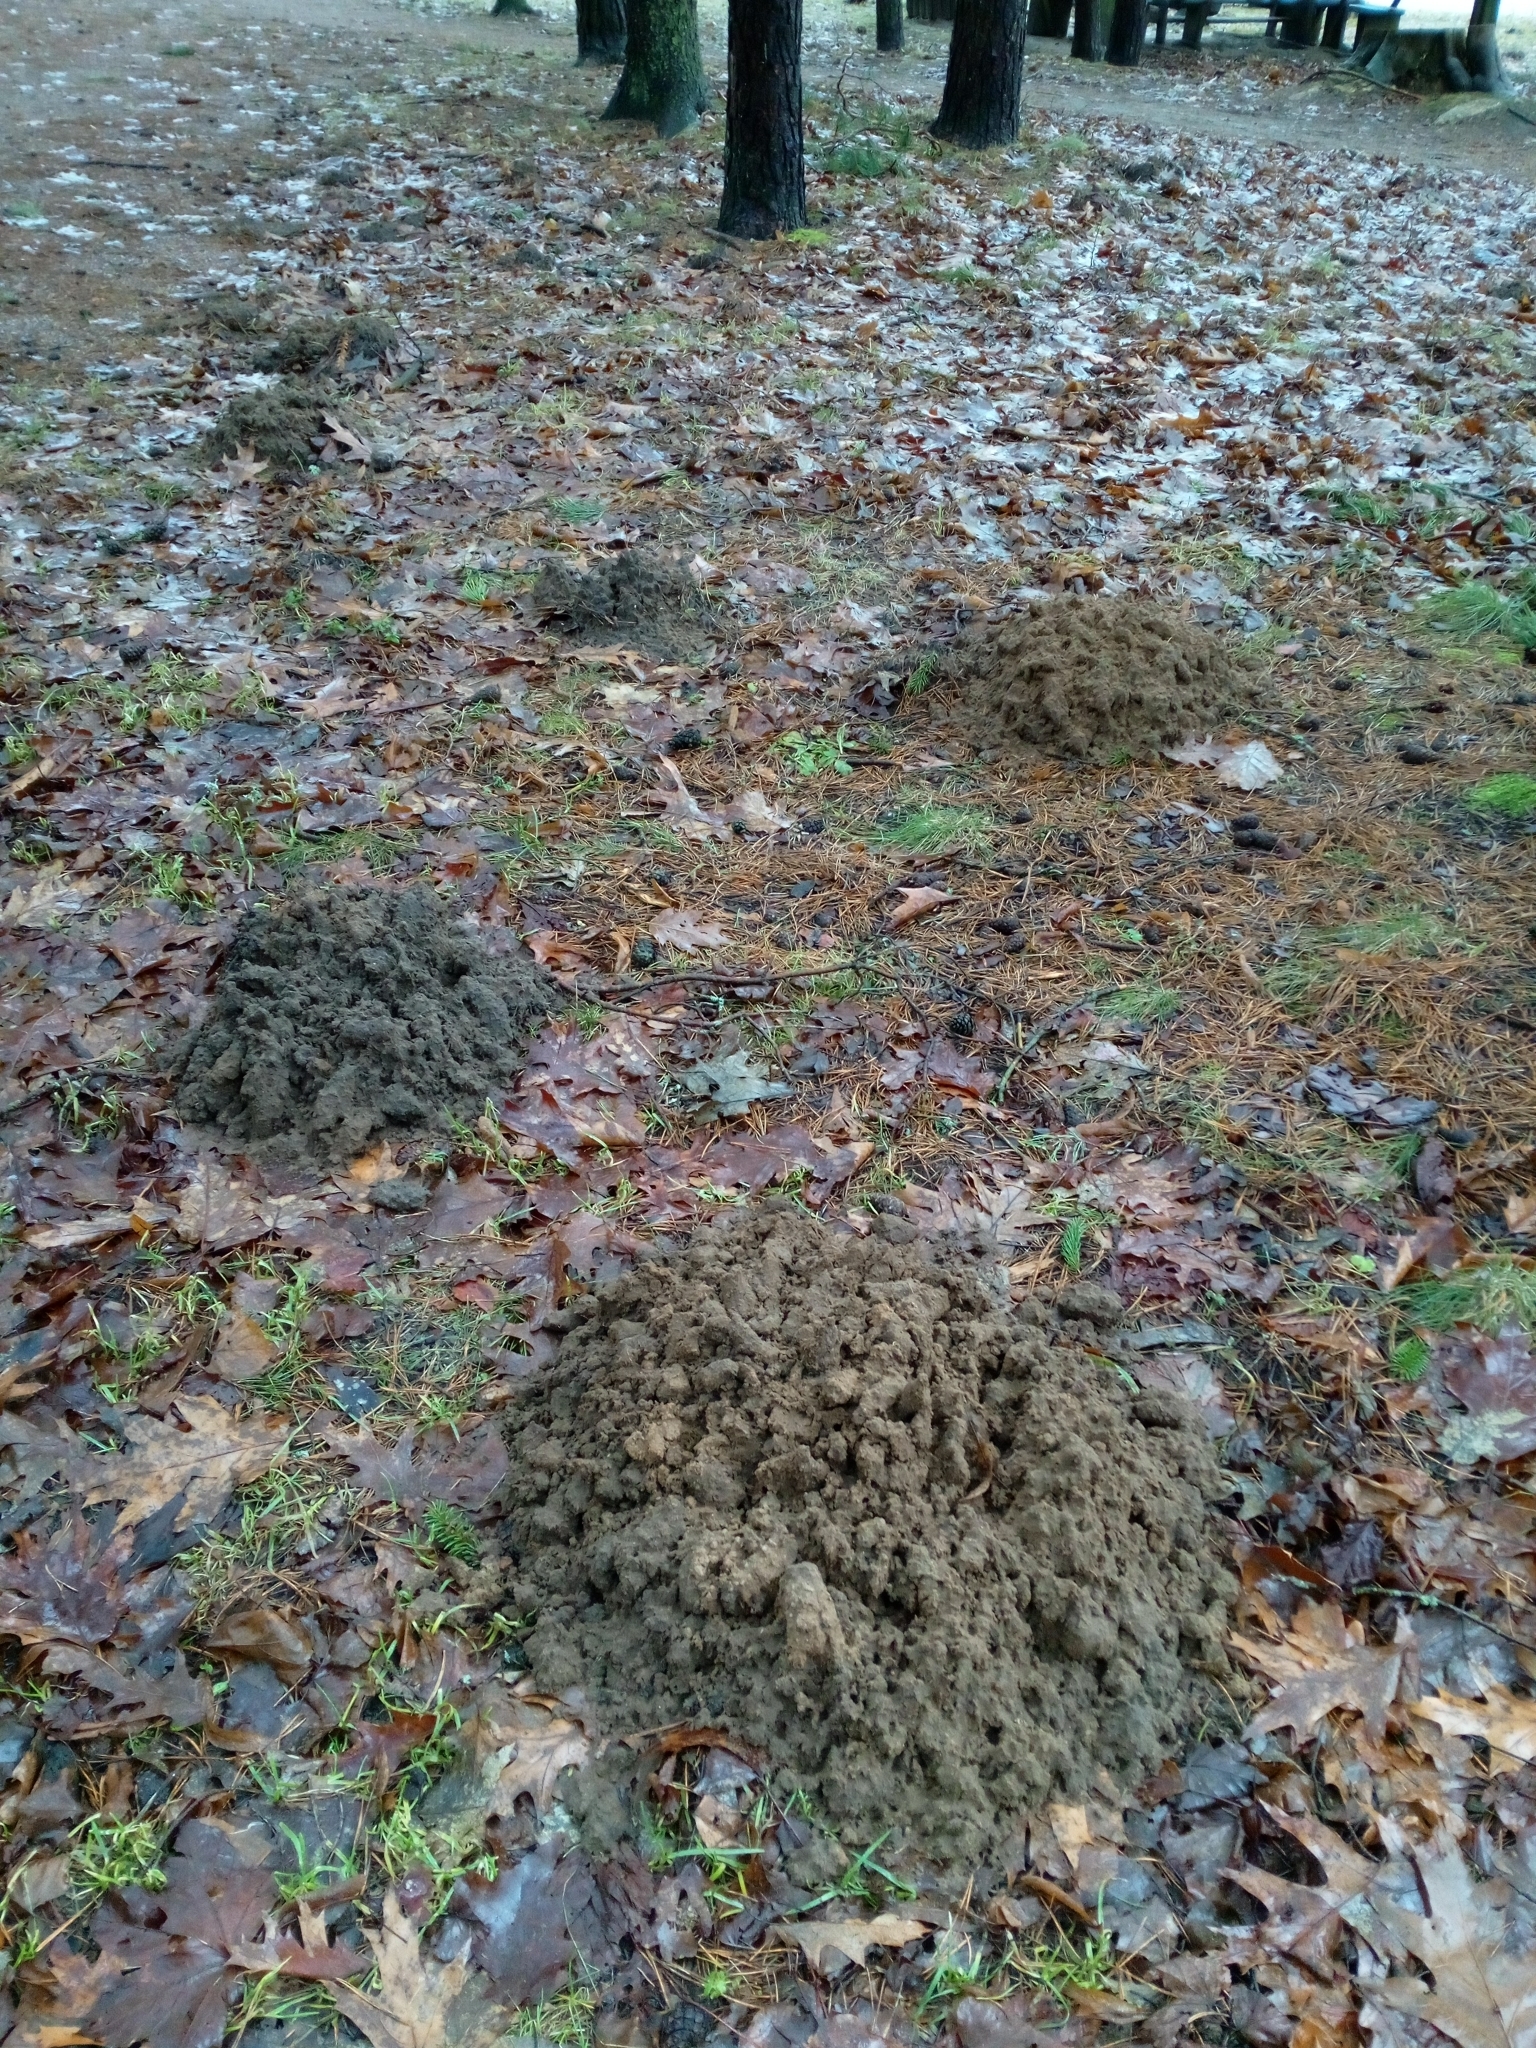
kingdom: Animalia
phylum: Chordata
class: Mammalia
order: Soricomorpha
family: Talpidae
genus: Talpa
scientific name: Talpa europaea
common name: European mole
